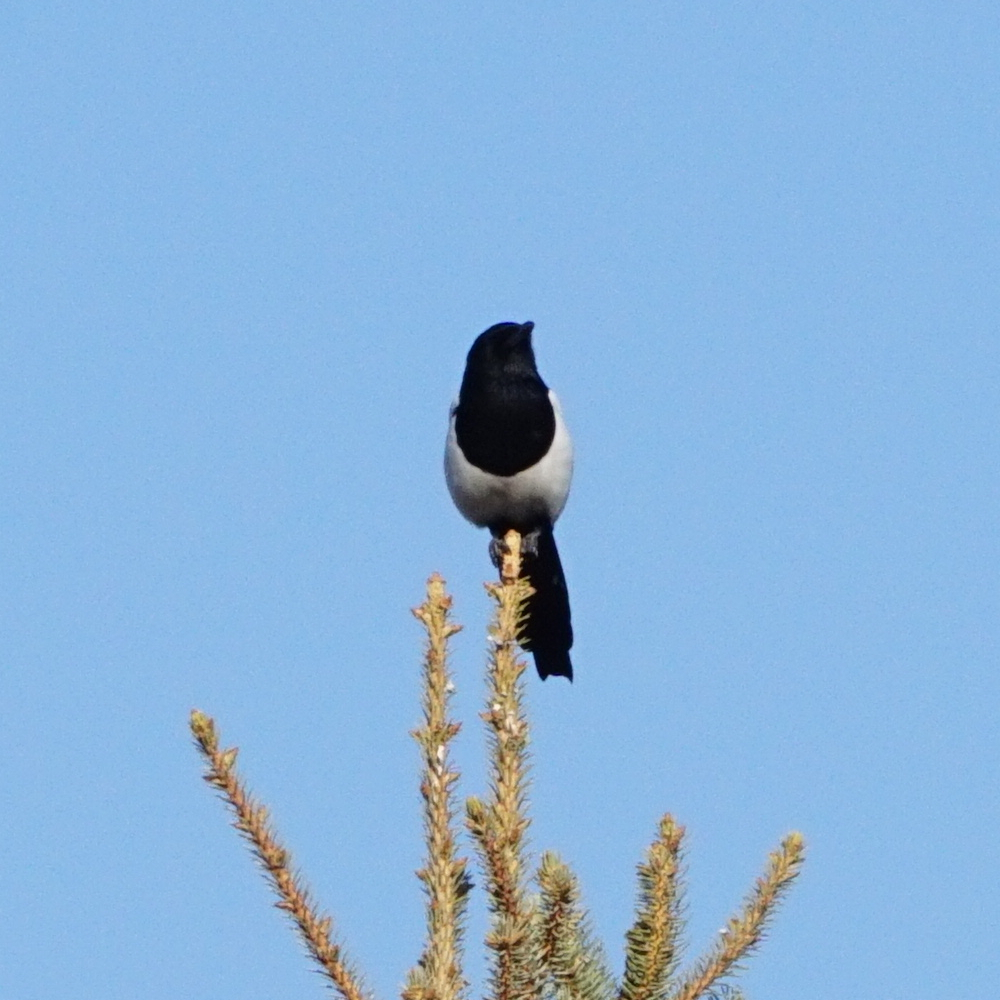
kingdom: Animalia
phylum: Chordata
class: Aves
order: Passeriformes
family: Corvidae
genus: Pica
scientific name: Pica pica
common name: Eurasian magpie
